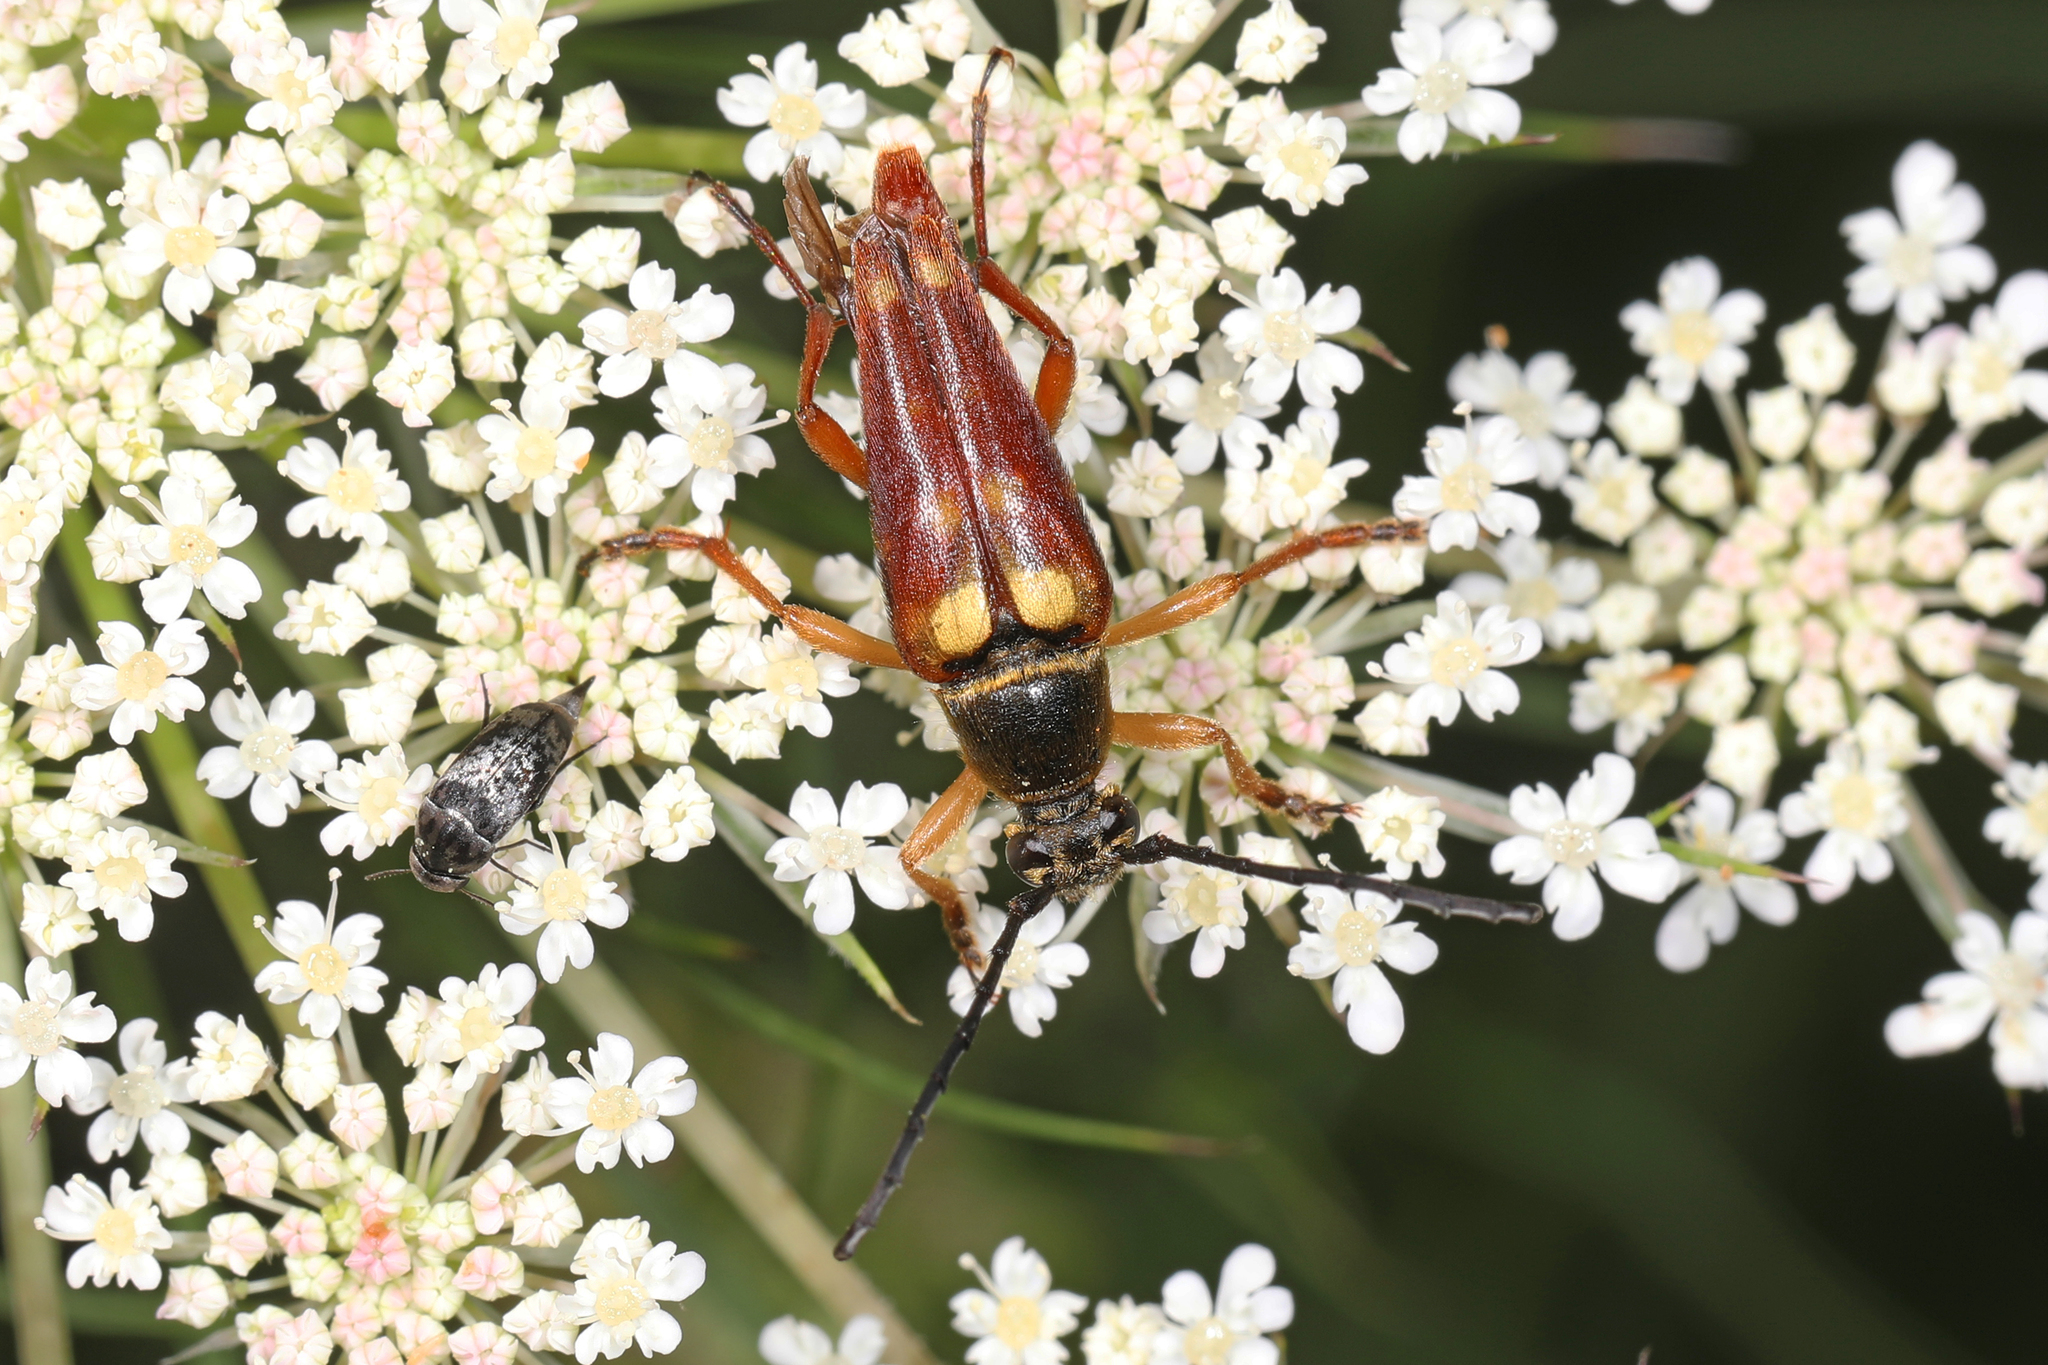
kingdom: Animalia
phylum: Arthropoda
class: Insecta
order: Coleoptera
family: Cerambycidae
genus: Typocerus
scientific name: Typocerus velutinus
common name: Banded longhorn beetle
